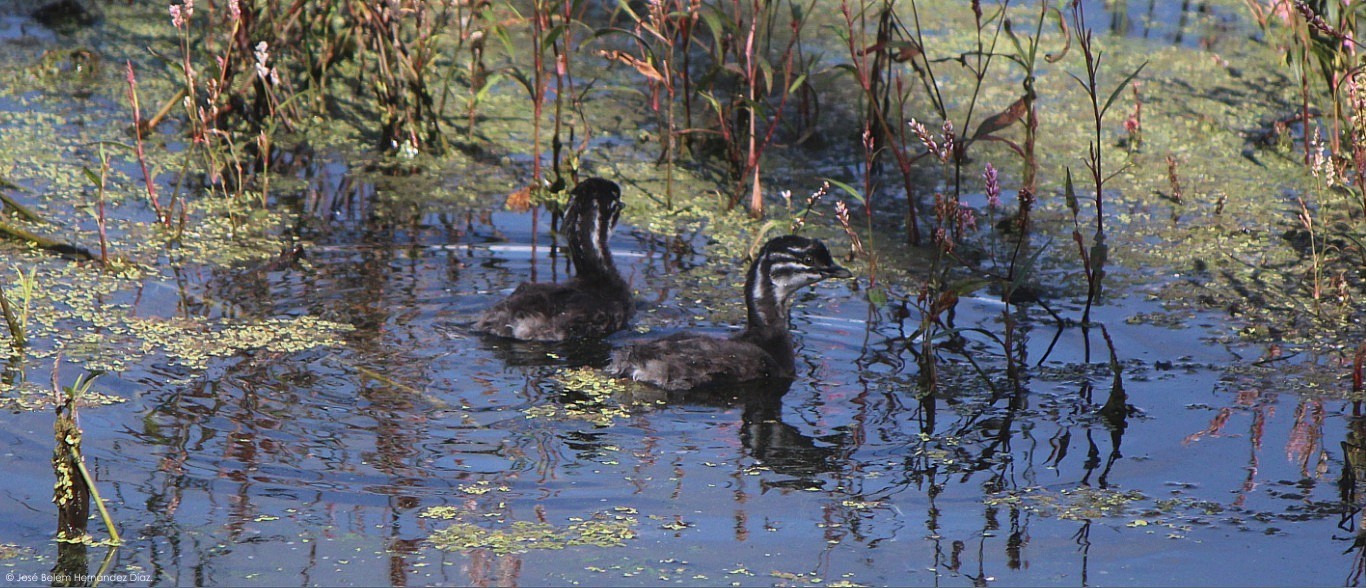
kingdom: Animalia
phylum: Chordata
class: Aves
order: Podicipediformes
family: Podicipedidae
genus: Tachybaptus
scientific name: Tachybaptus dominicus
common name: Least grebe
